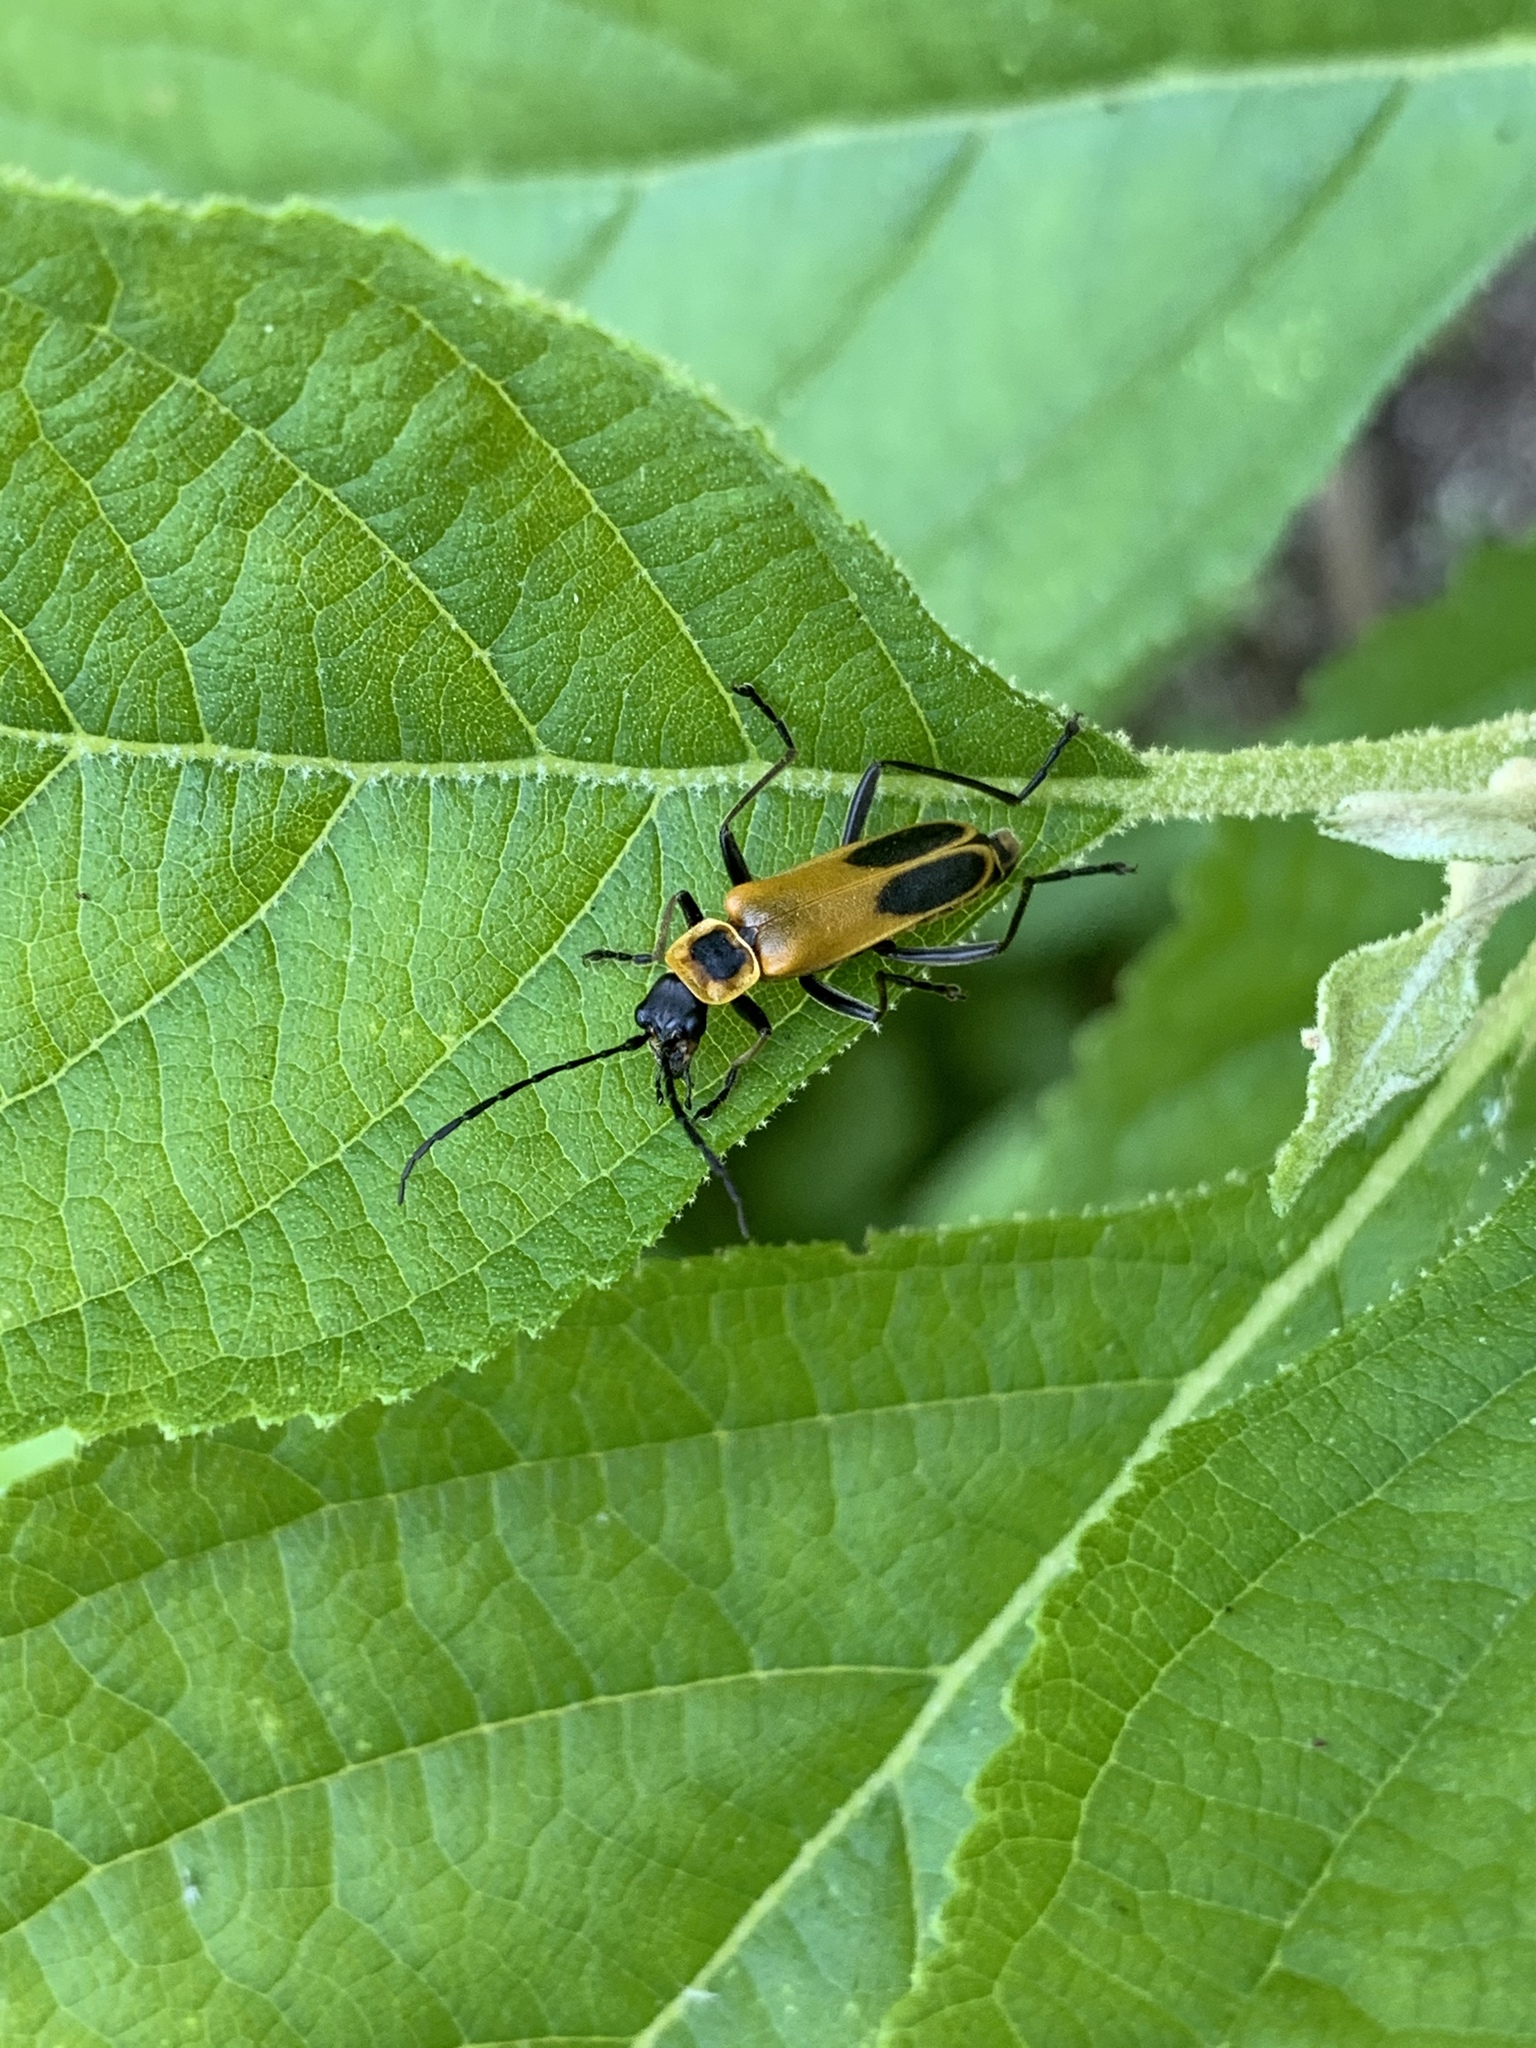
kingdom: Animalia
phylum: Arthropoda
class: Insecta
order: Coleoptera
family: Cantharidae
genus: Chauliognathus
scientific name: Chauliognathus pensylvanicus
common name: Goldenrod soldier beetle
